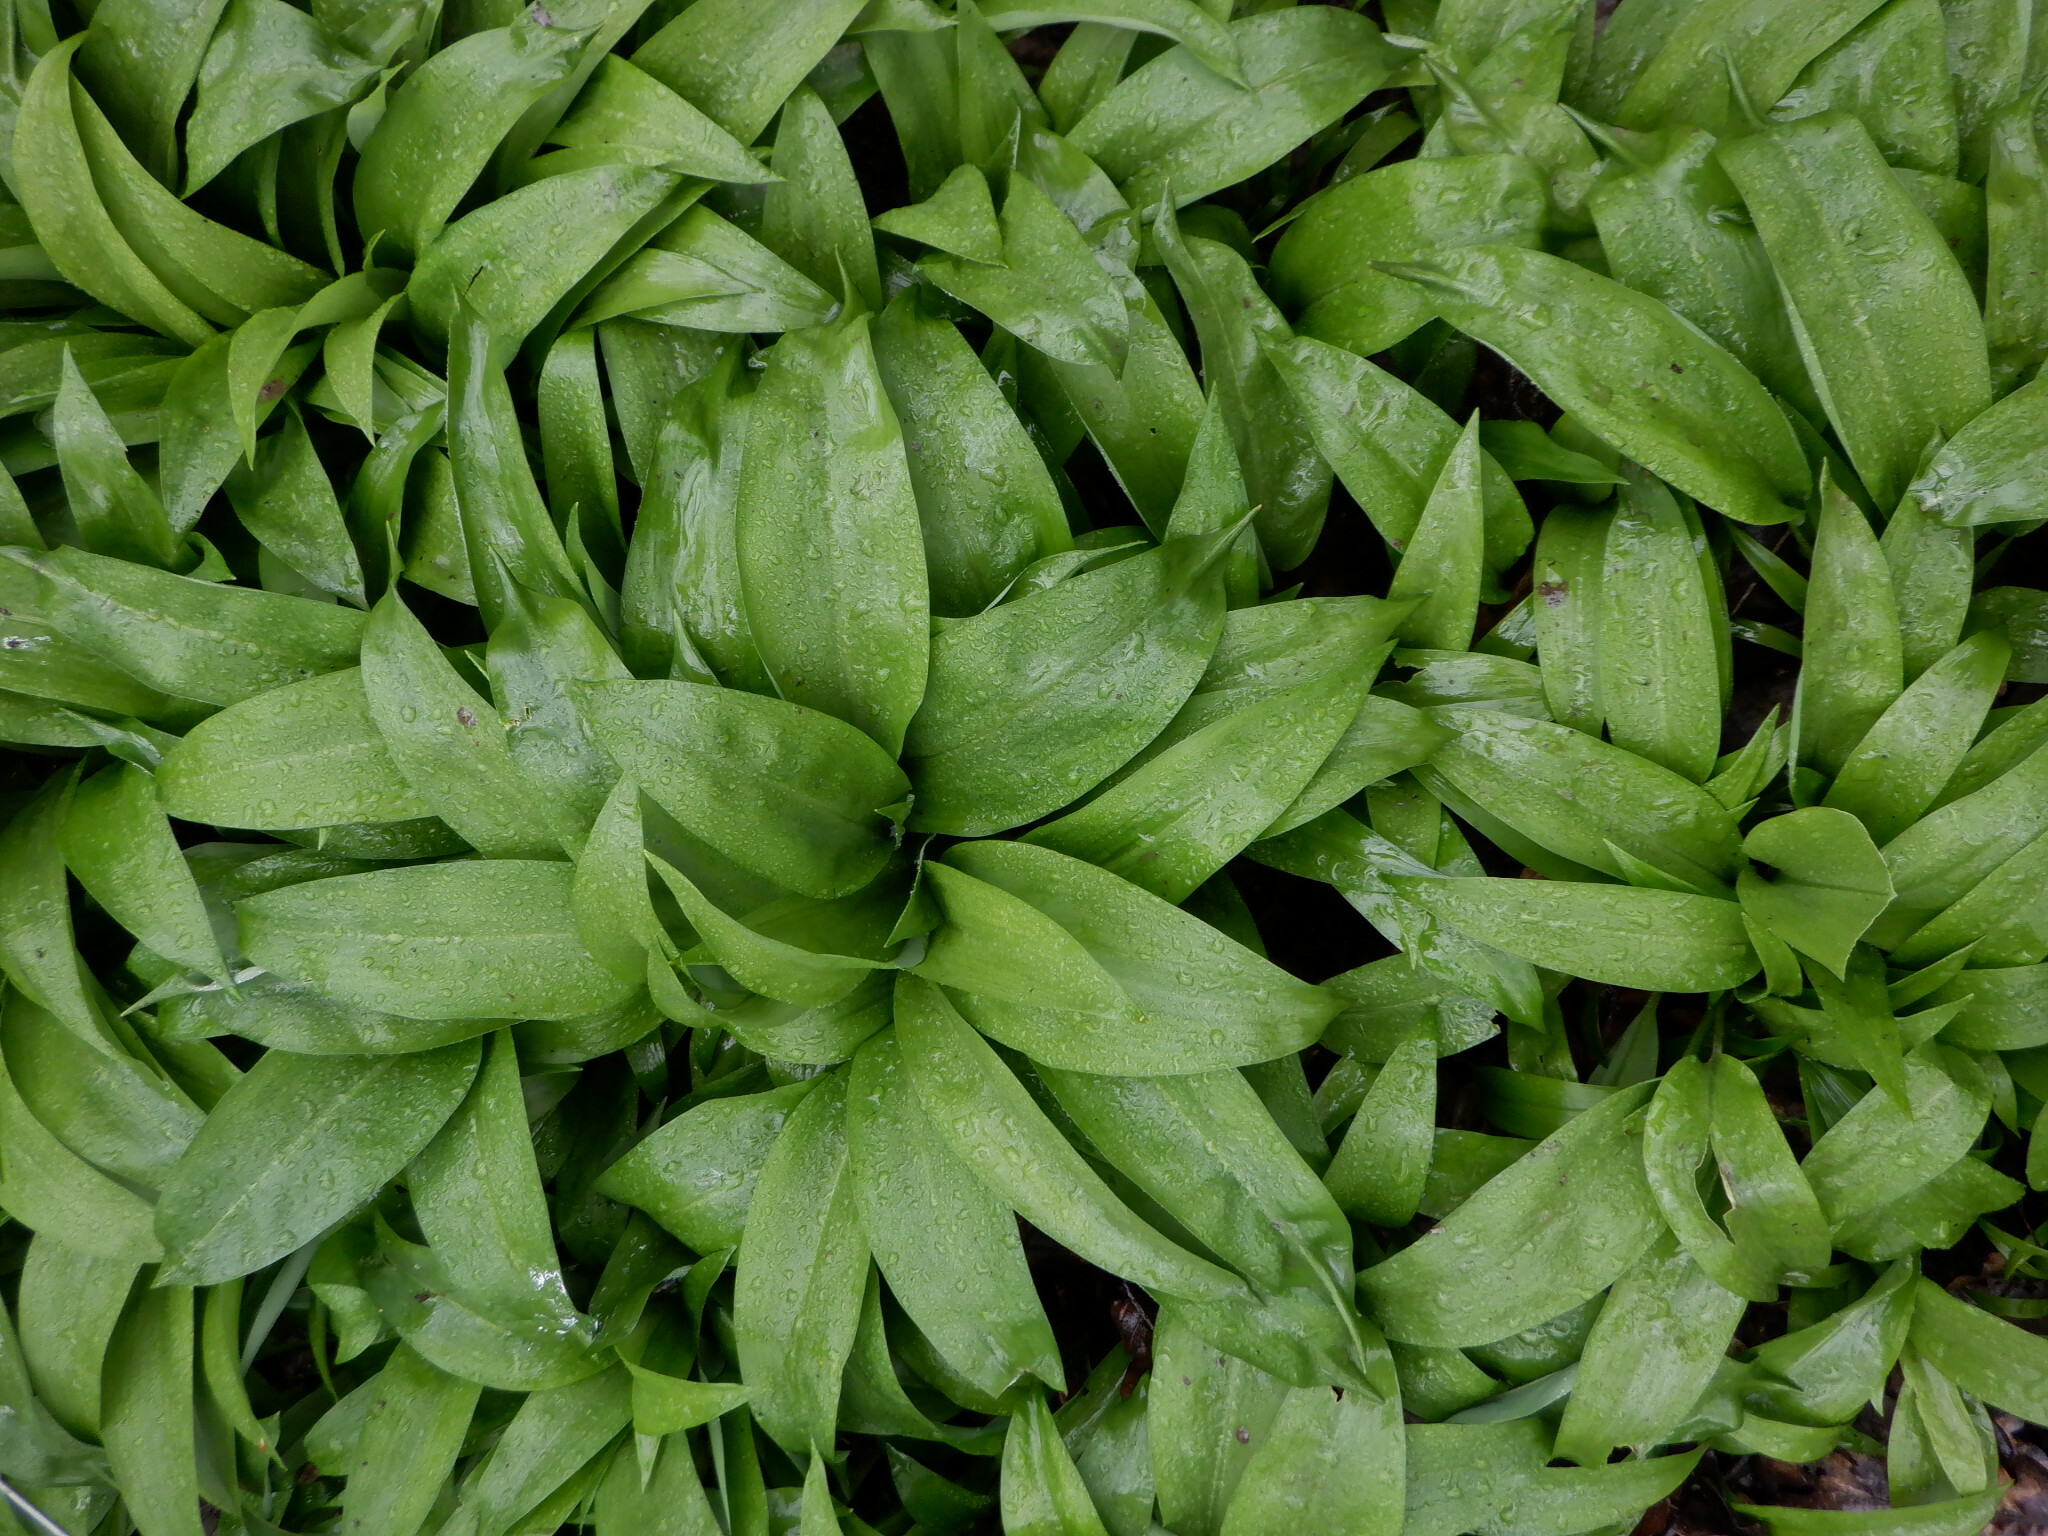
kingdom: Plantae
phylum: Tracheophyta
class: Liliopsida
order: Asparagales
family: Amaryllidaceae
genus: Allium
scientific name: Allium ursinum
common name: Ramsons
